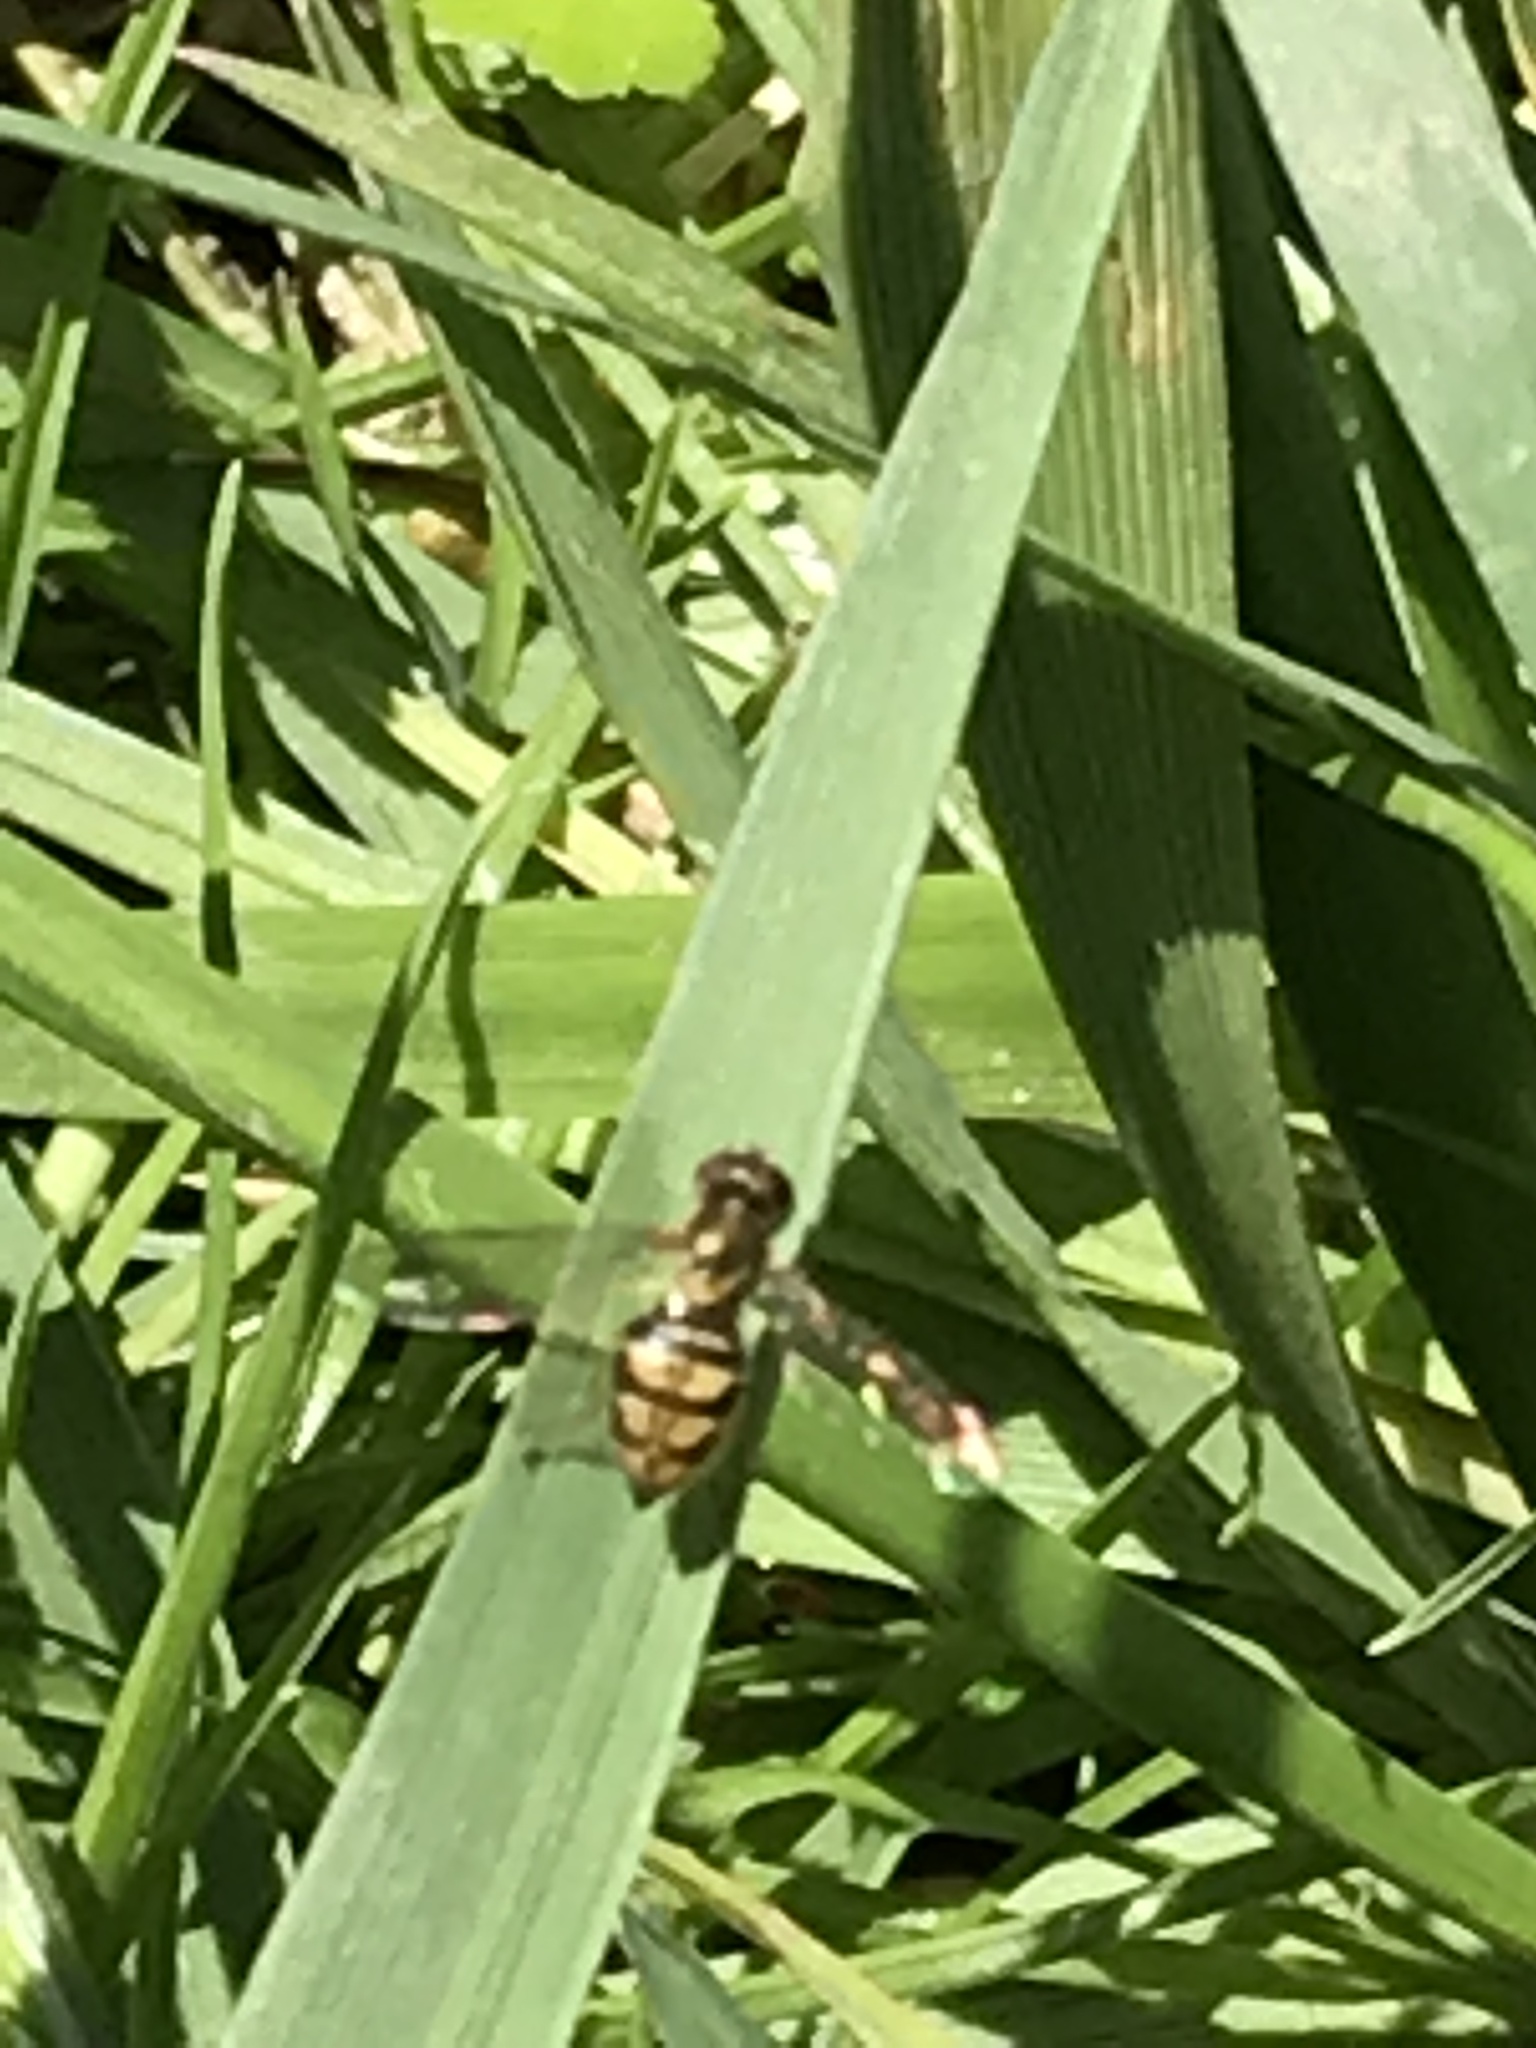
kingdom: Animalia
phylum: Arthropoda
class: Insecta
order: Diptera
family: Syrphidae
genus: Toxomerus
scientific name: Toxomerus marginatus
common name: Syrphid fly
